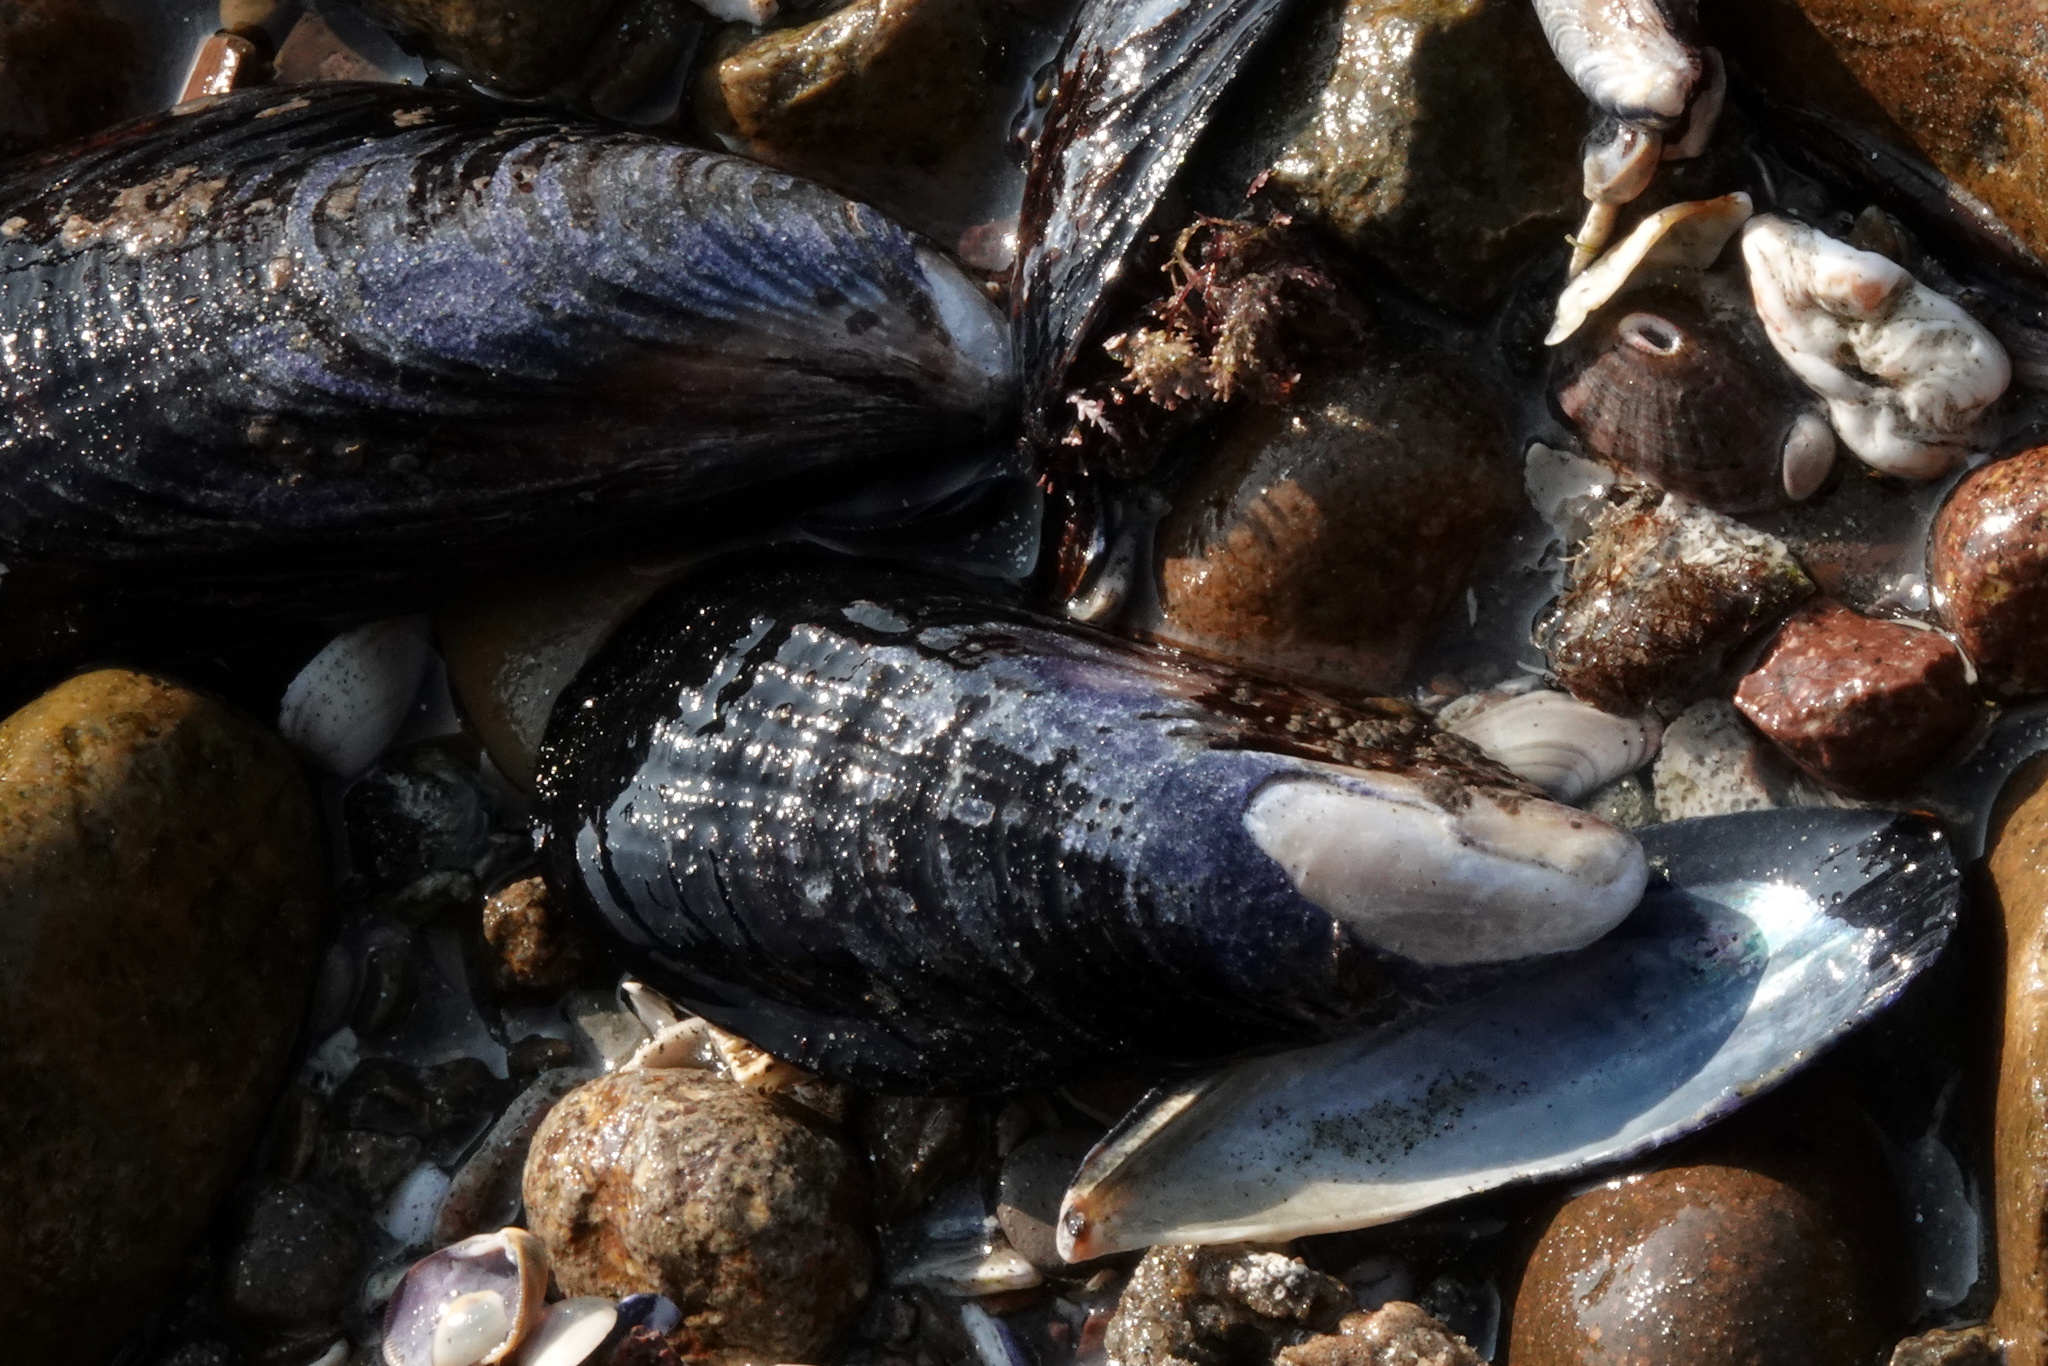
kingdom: Animalia
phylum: Mollusca
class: Bivalvia
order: Mytilida
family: Mytilidae
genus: Mytilus
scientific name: Mytilus californianus
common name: California mussel
